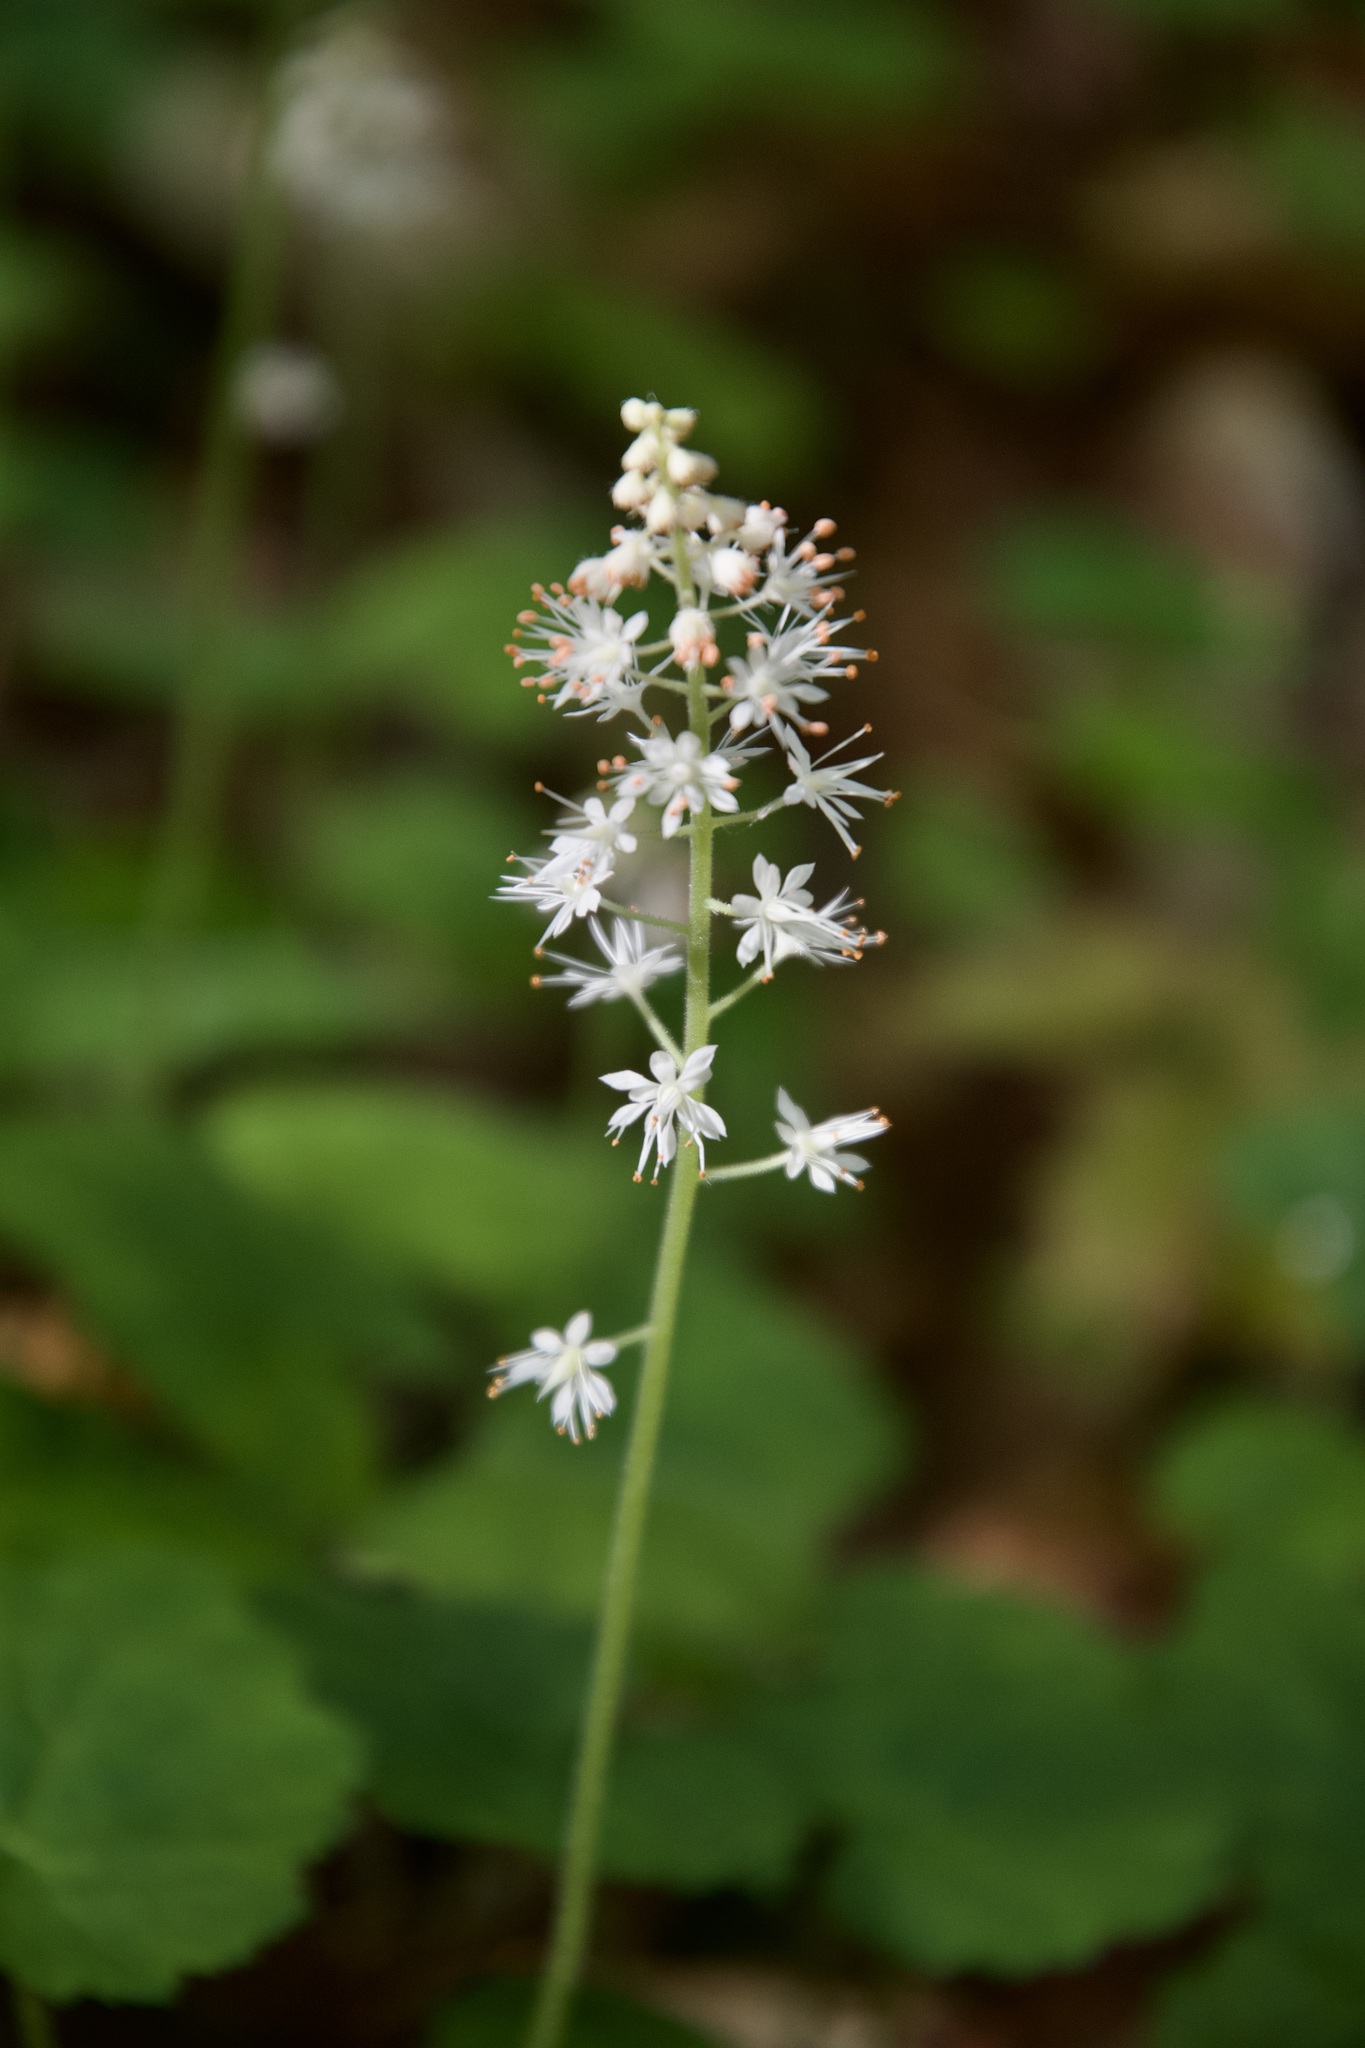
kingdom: Plantae
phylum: Tracheophyta
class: Magnoliopsida
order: Saxifragales
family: Saxifragaceae
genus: Tiarella
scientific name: Tiarella stolonifera
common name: Stoloniferous foamflower
